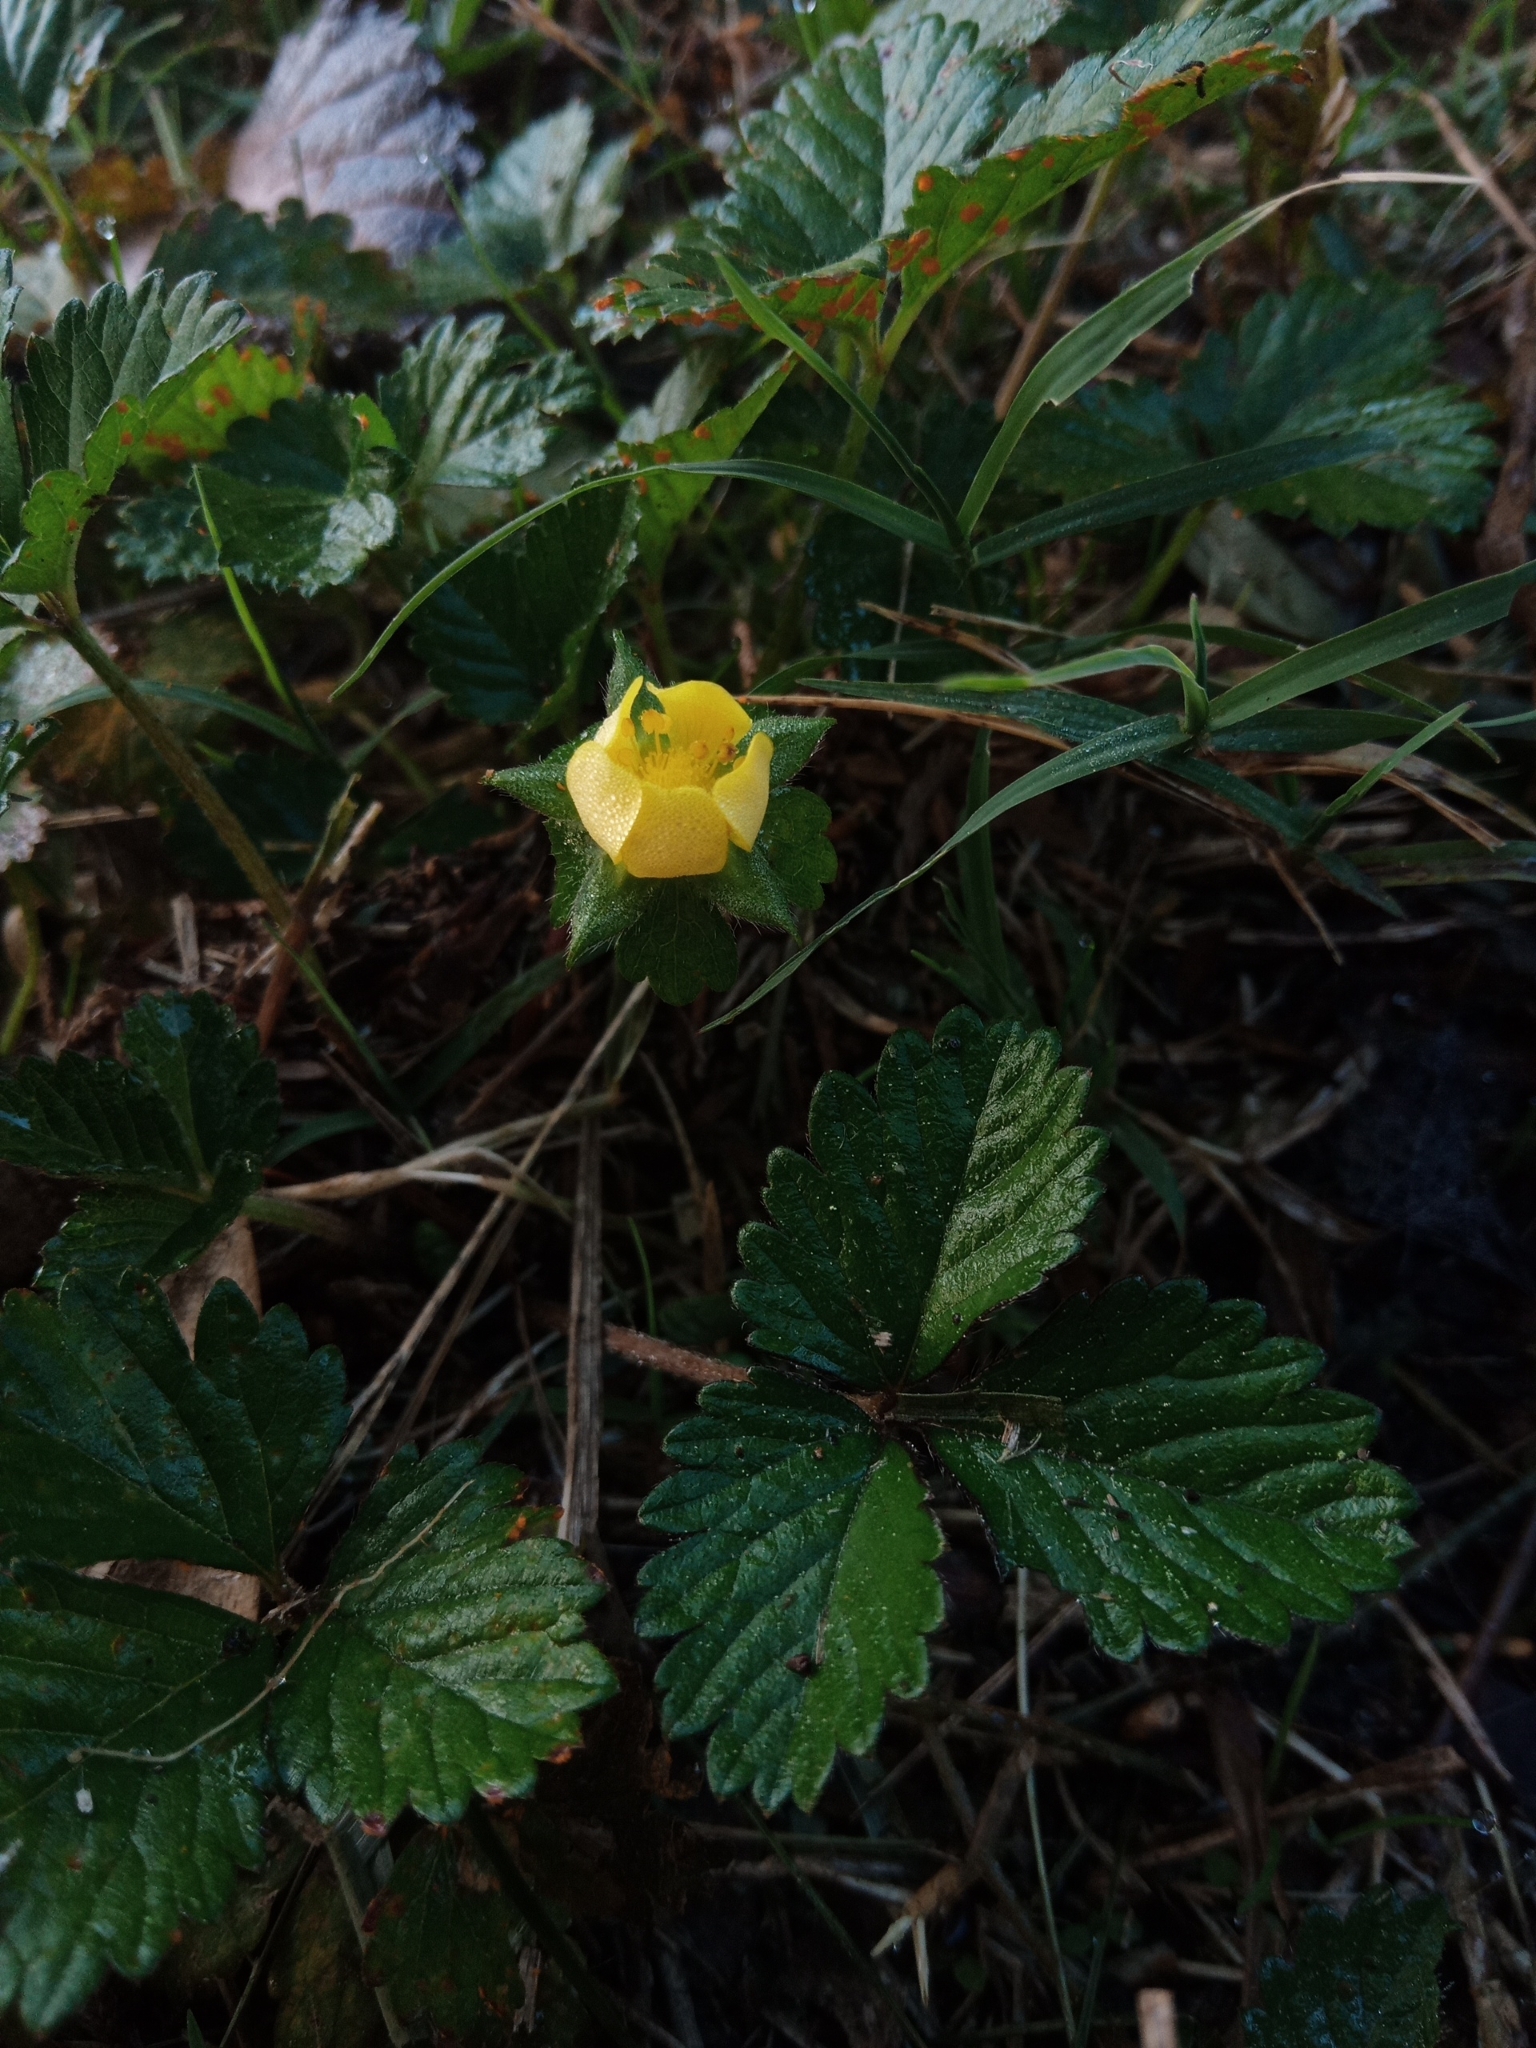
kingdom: Plantae
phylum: Tracheophyta
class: Magnoliopsida
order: Rosales
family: Rosaceae
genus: Potentilla
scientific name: Potentilla indica
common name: Yellow-flowered strawberry
